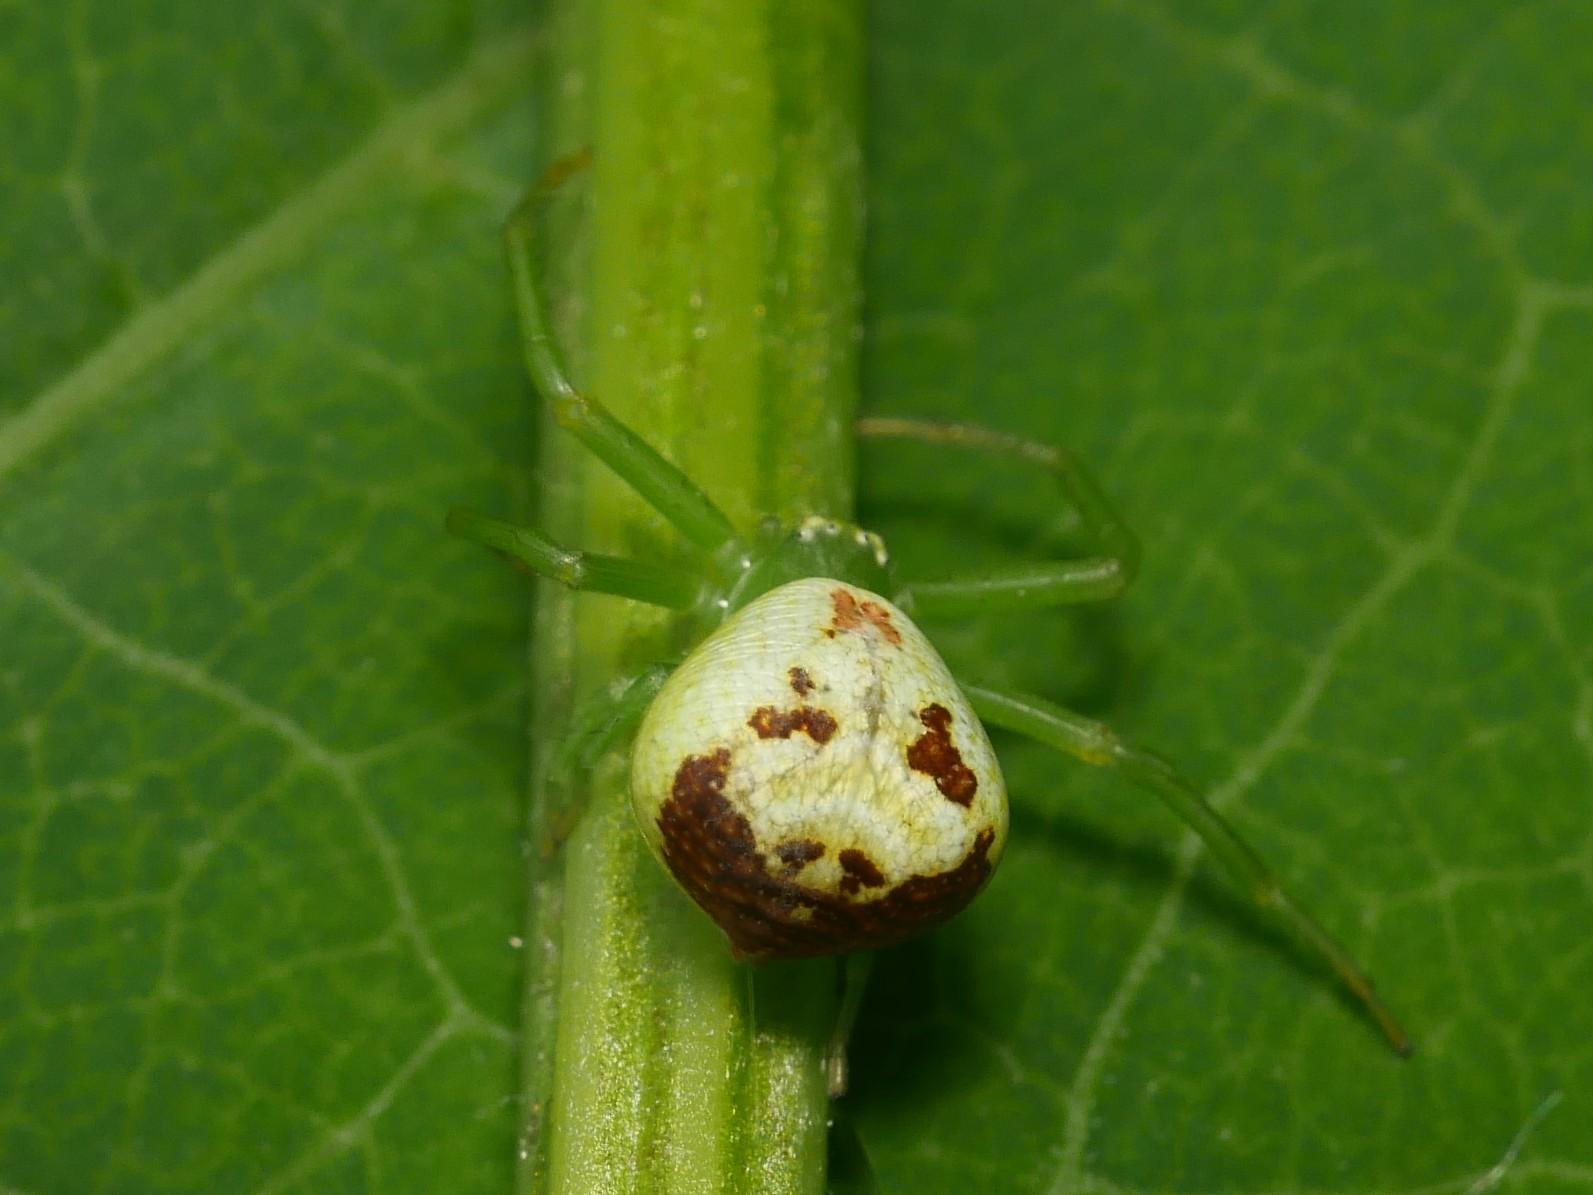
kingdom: Animalia
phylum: Arthropoda
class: Arachnida
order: Araneae
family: Thomisidae
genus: Ebrechtella
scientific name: Ebrechtella tricuspidata
